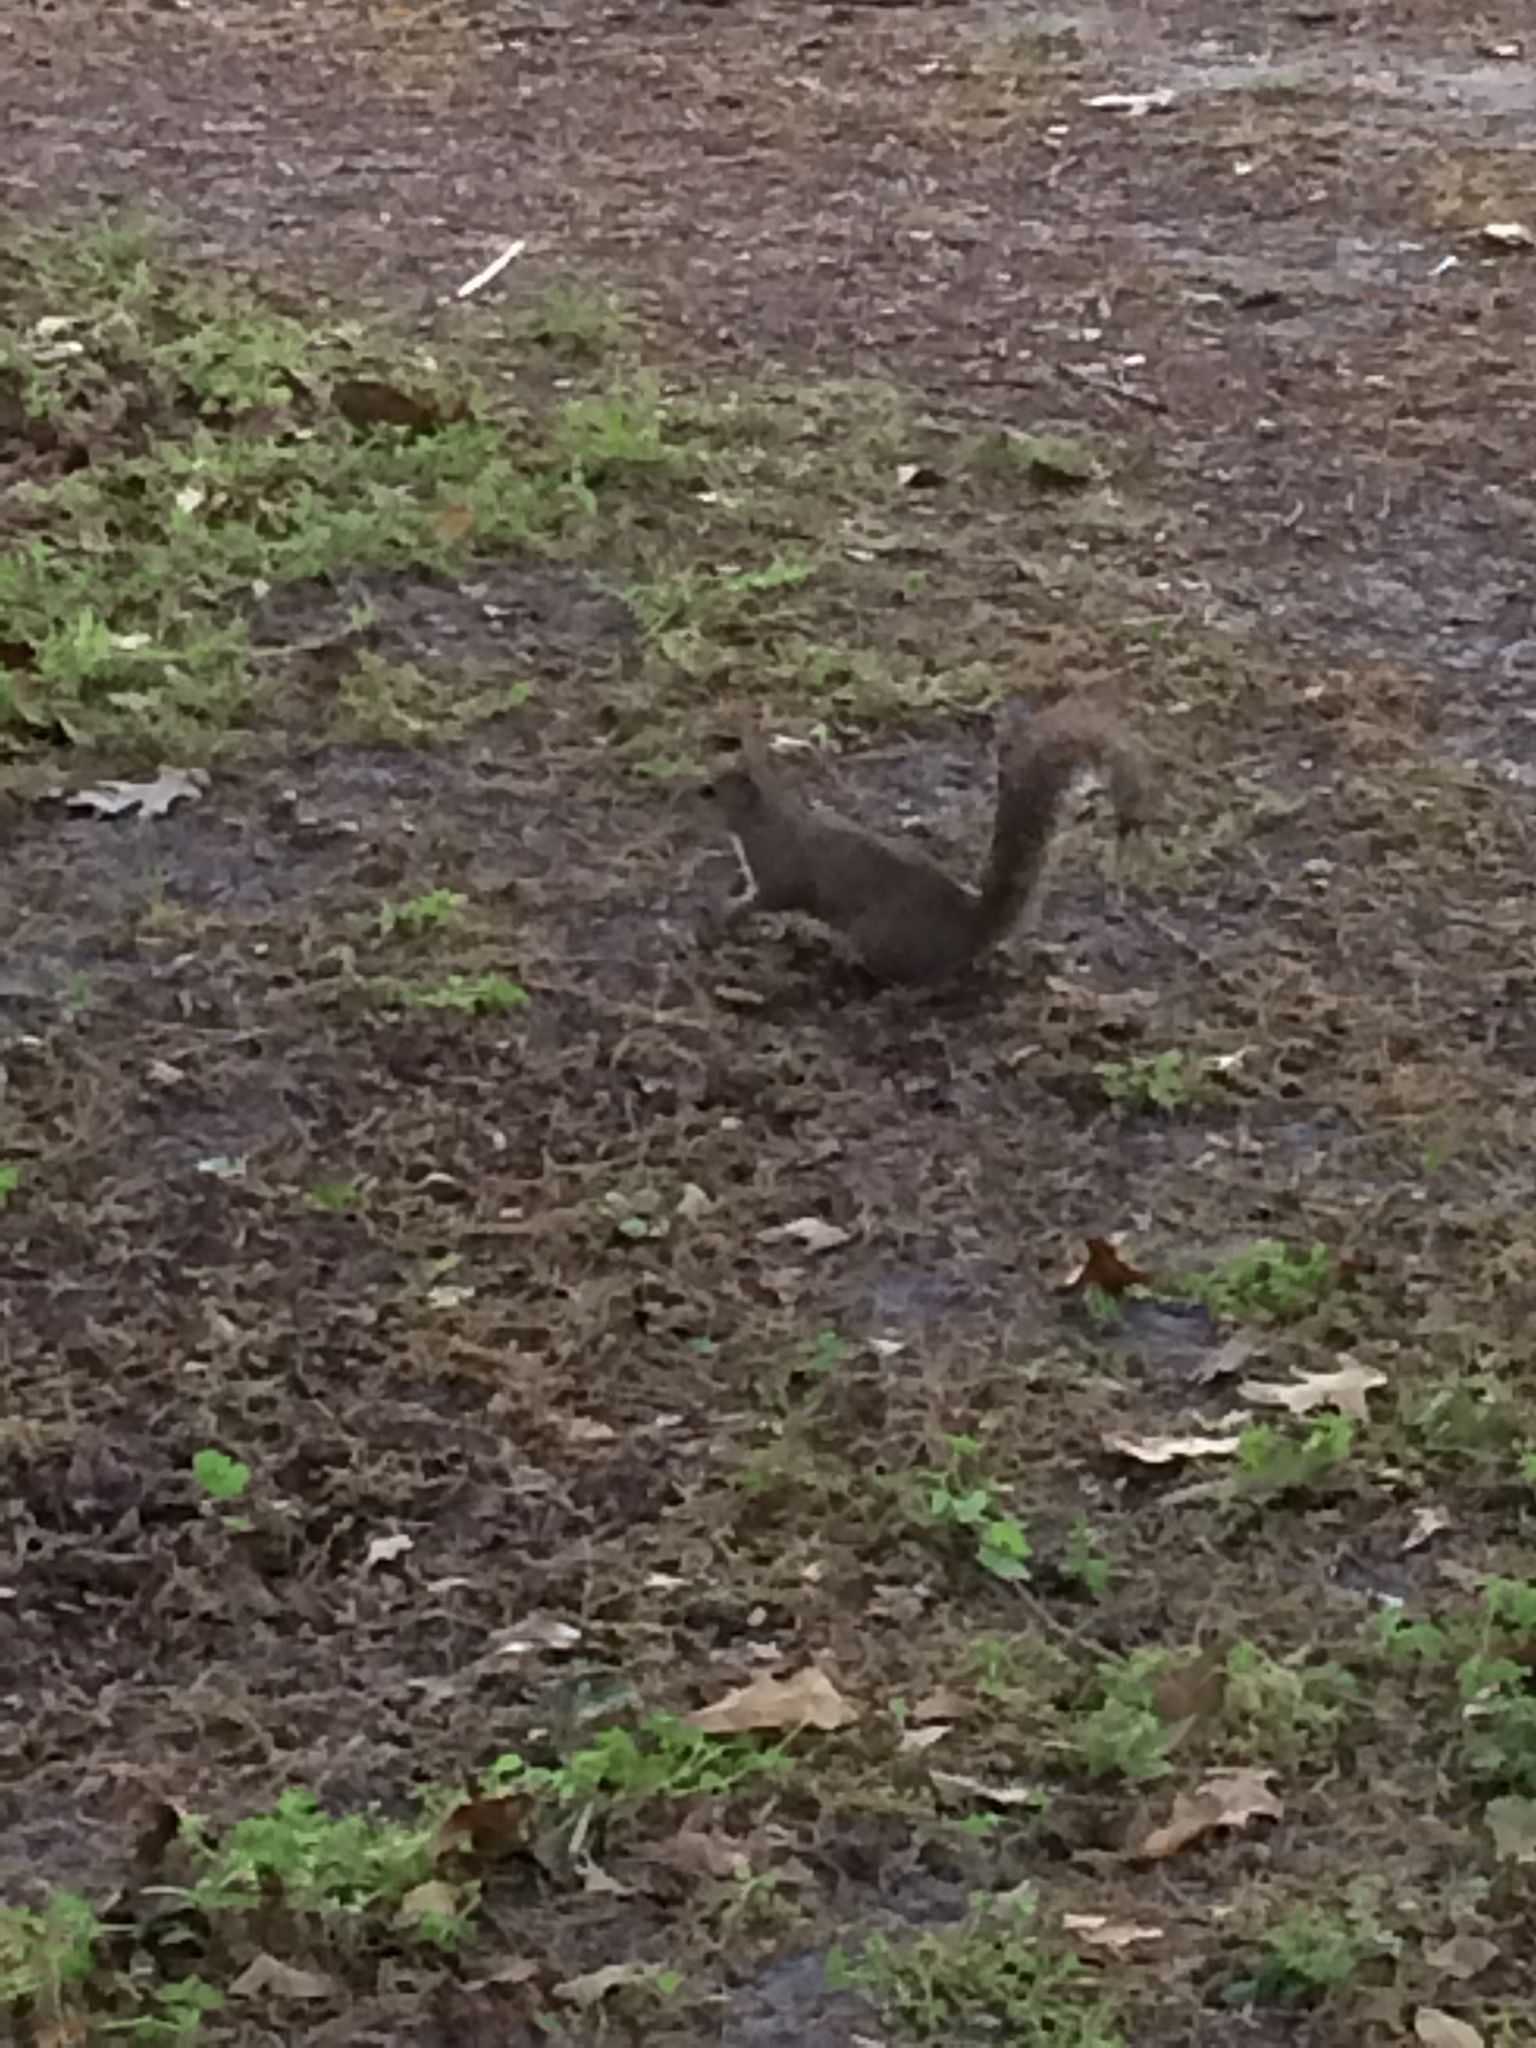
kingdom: Animalia
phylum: Chordata
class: Mammalia
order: Rodentia
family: Sciuridae
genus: Sciurus
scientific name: Sciurus carolinensis
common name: Eastern gray squirrel
